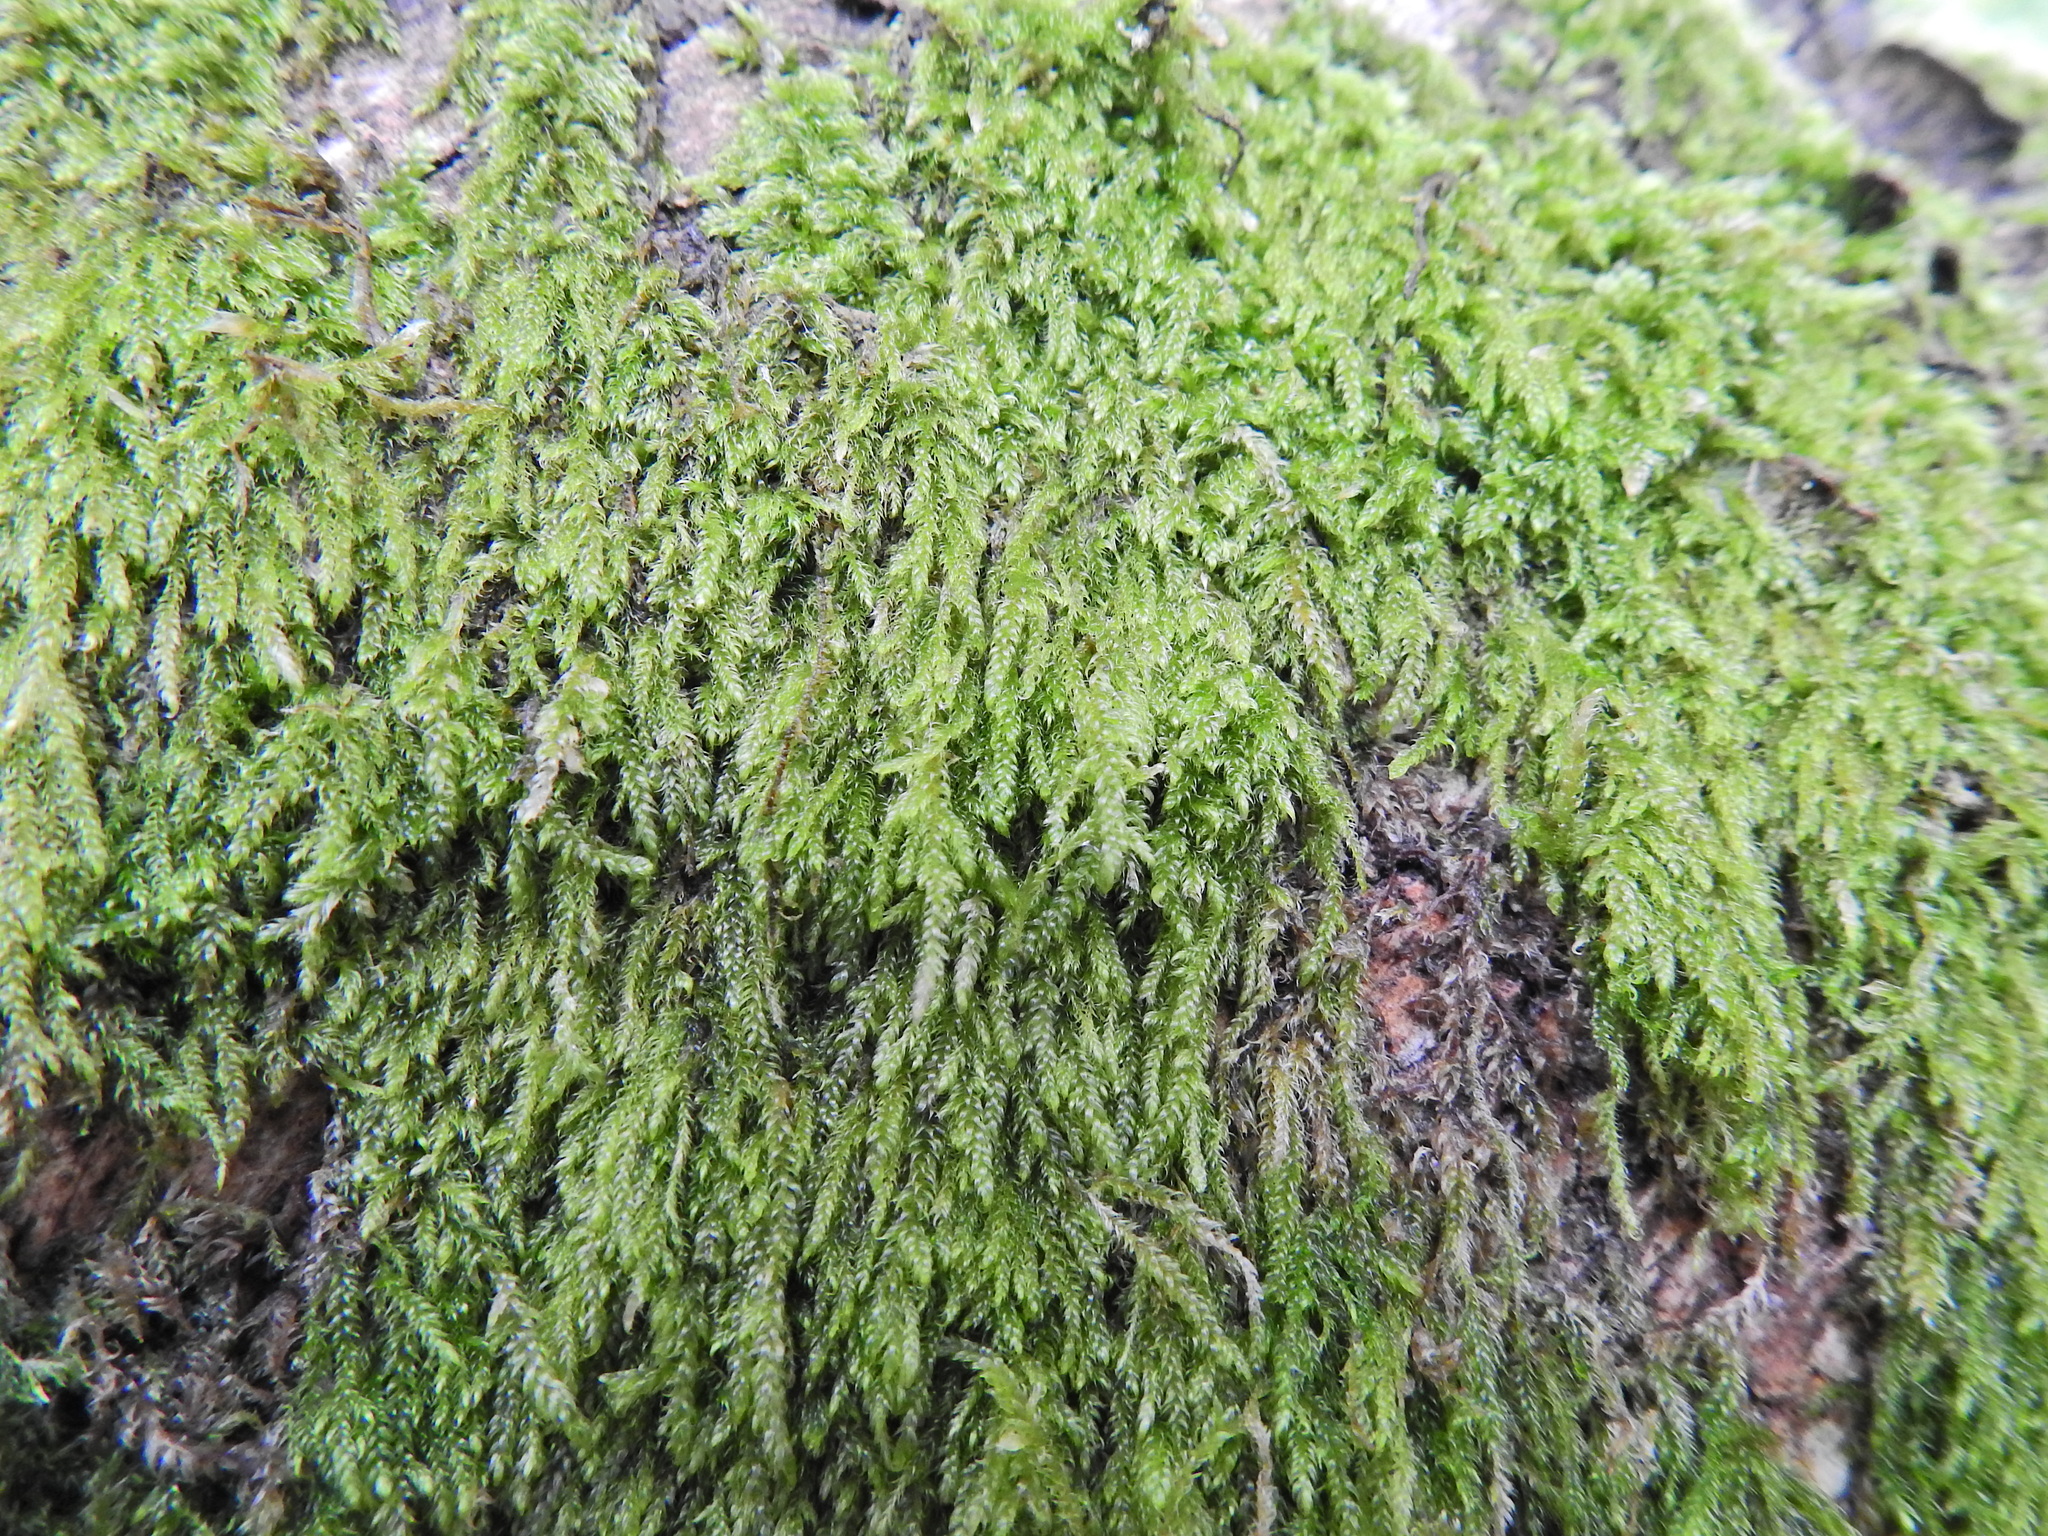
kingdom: Plantae
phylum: Bryophyta
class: Bryopsida
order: Hypnales
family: Hypnaceae
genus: Hypnum
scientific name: Hypnum cupressiforme
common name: Cypress-leaved plait-moss
